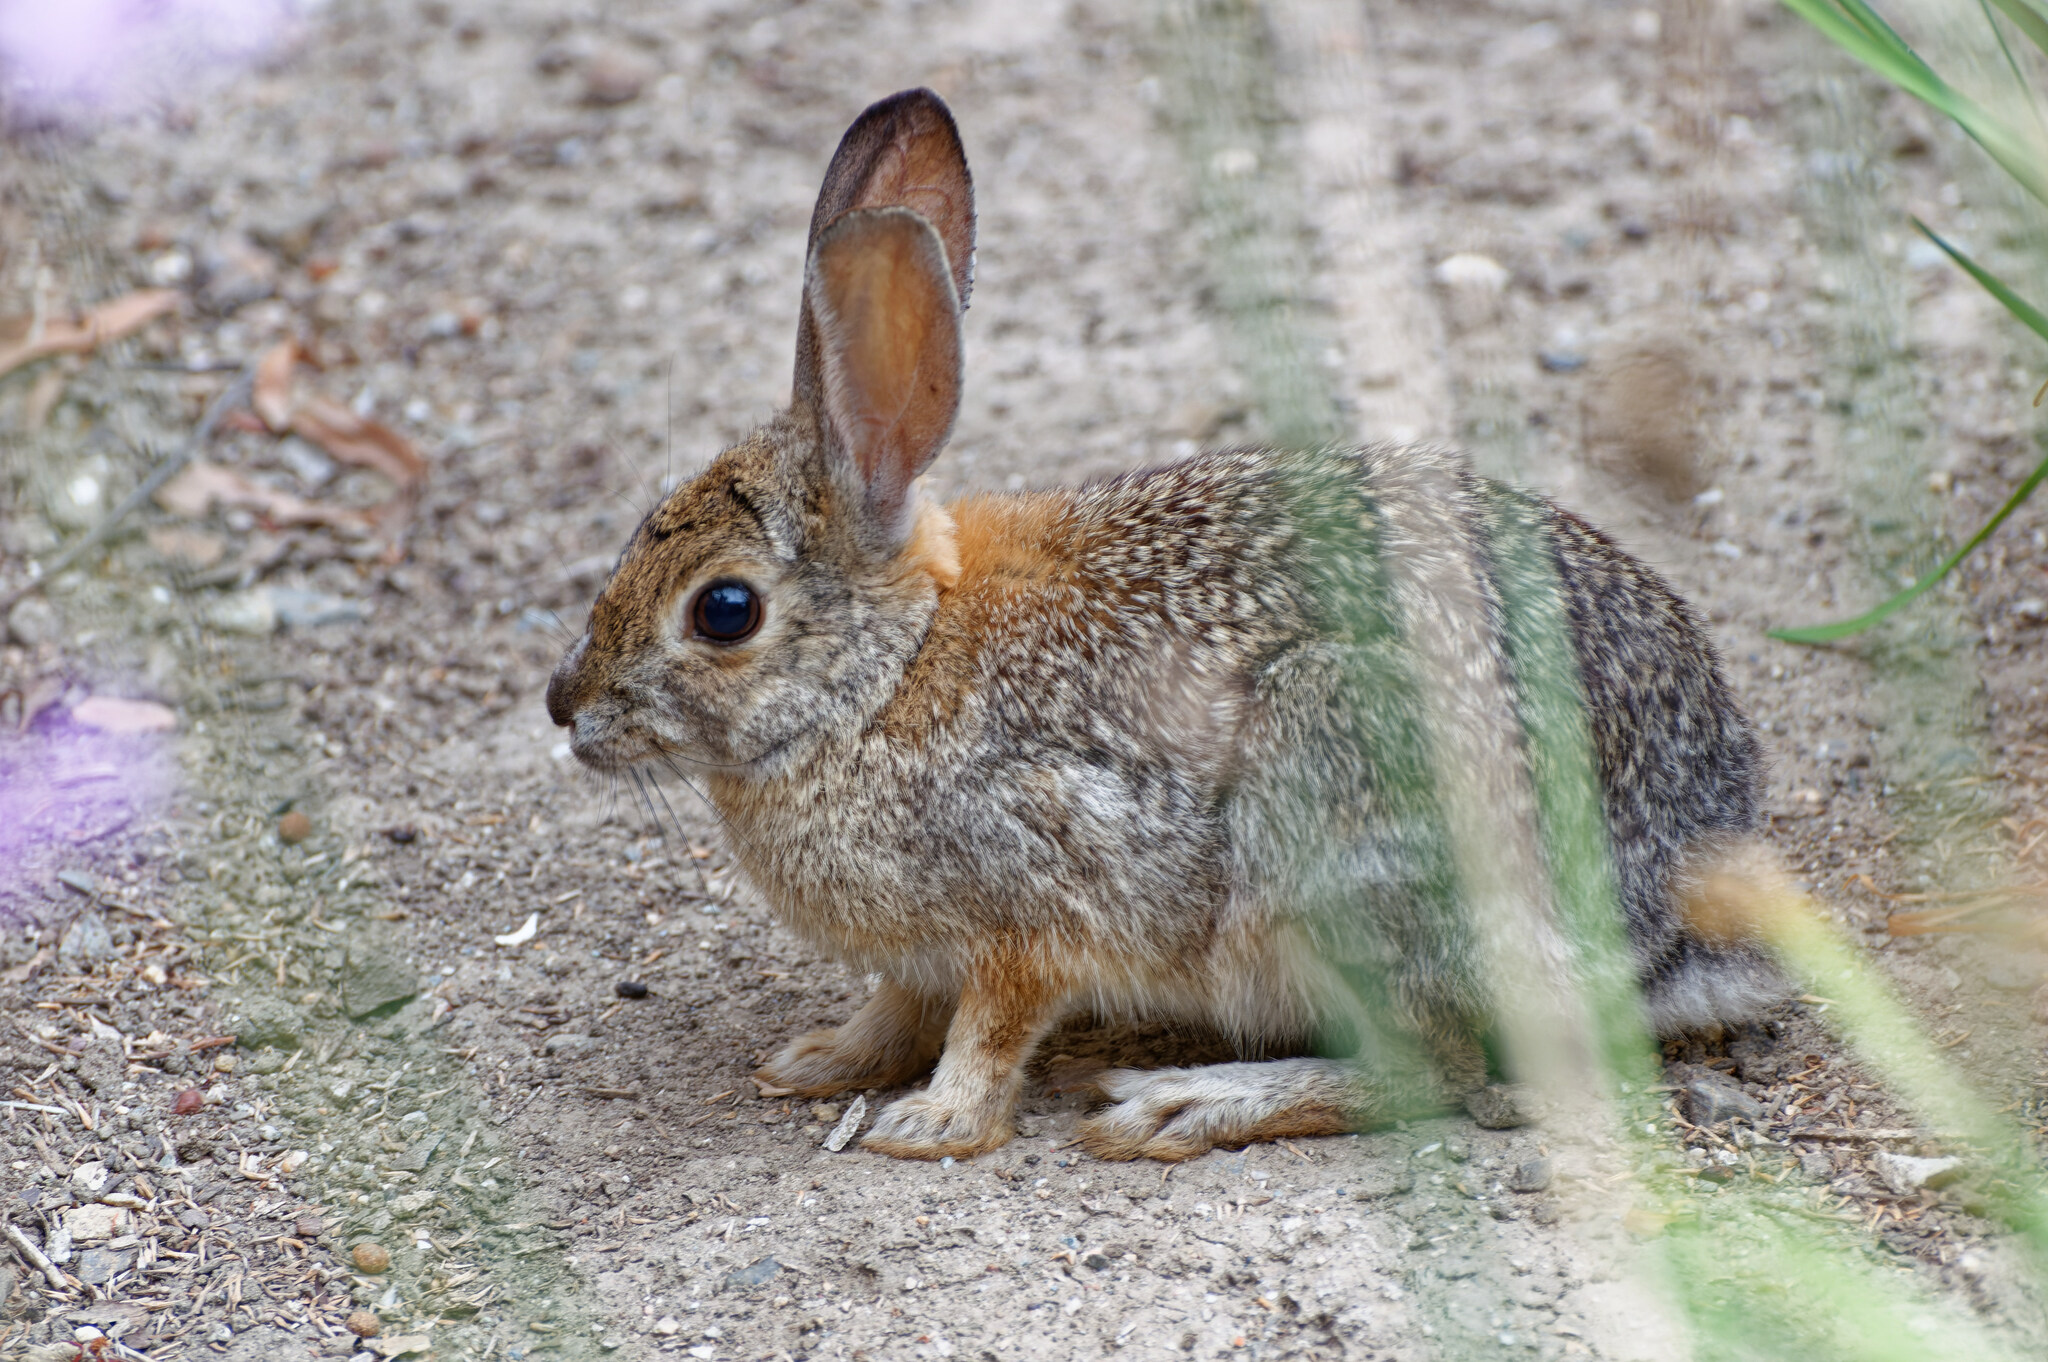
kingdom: Animalia
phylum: Chordata
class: Mammalia
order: Lagomorpha
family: Leporidae
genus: Sylvilagus
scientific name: Sylvilagus audubonii
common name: Desert cottontail
